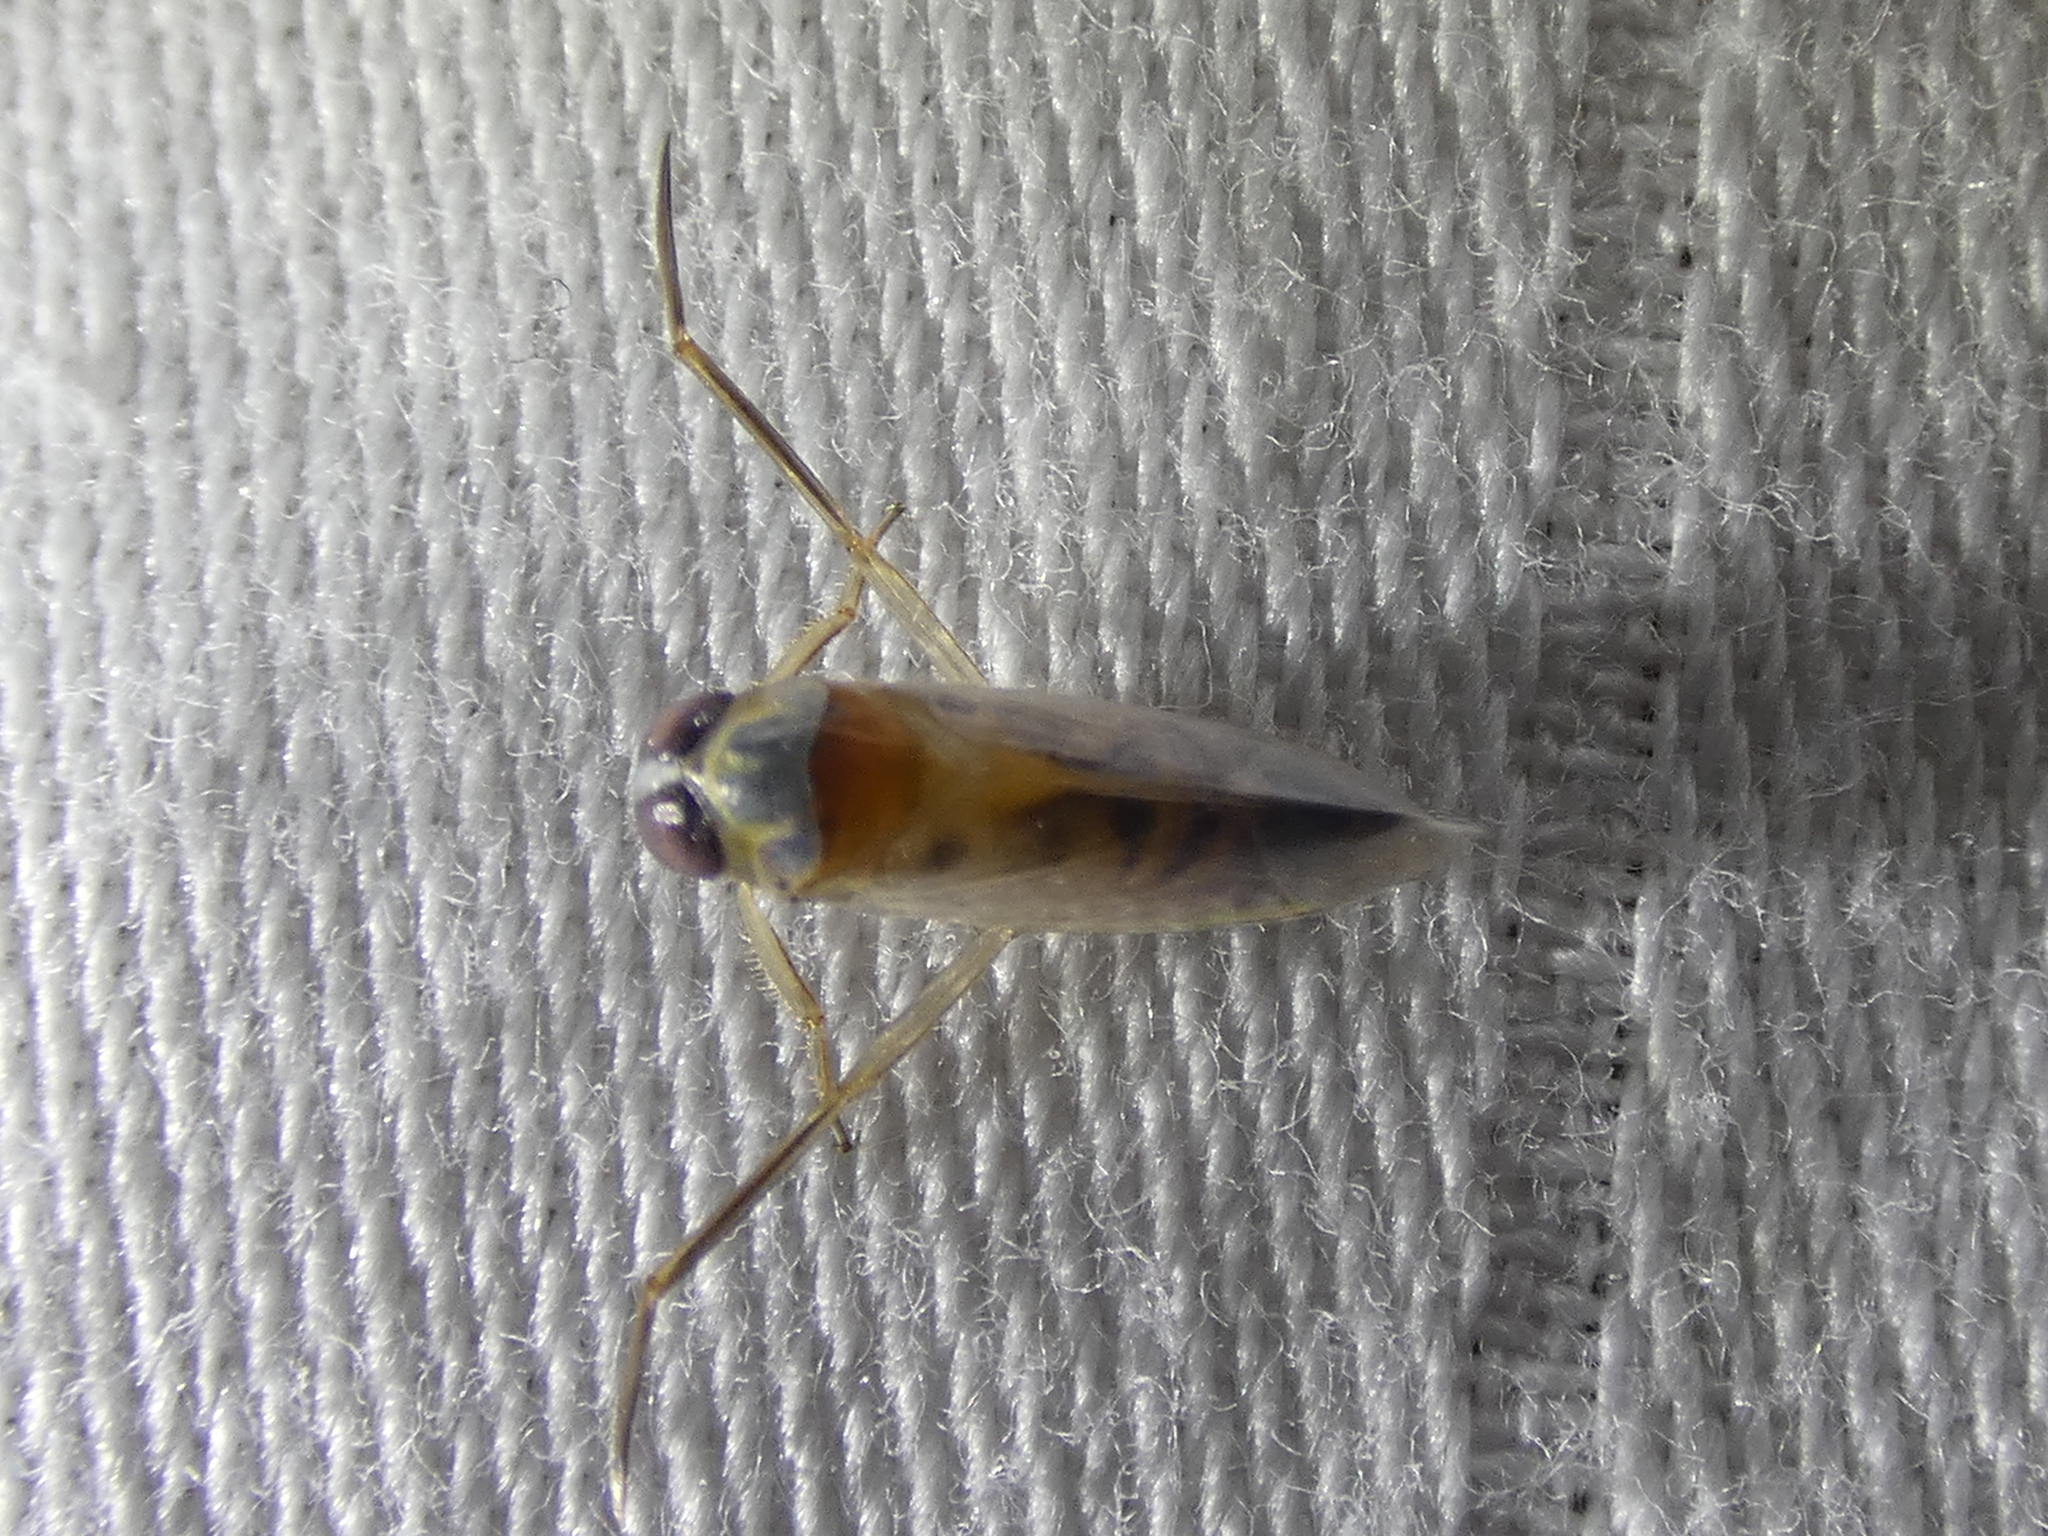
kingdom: Animalia
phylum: Arthropoda
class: Insecta
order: Hemiptera
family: Notonectidae
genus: Buenoa
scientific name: Buenoa
